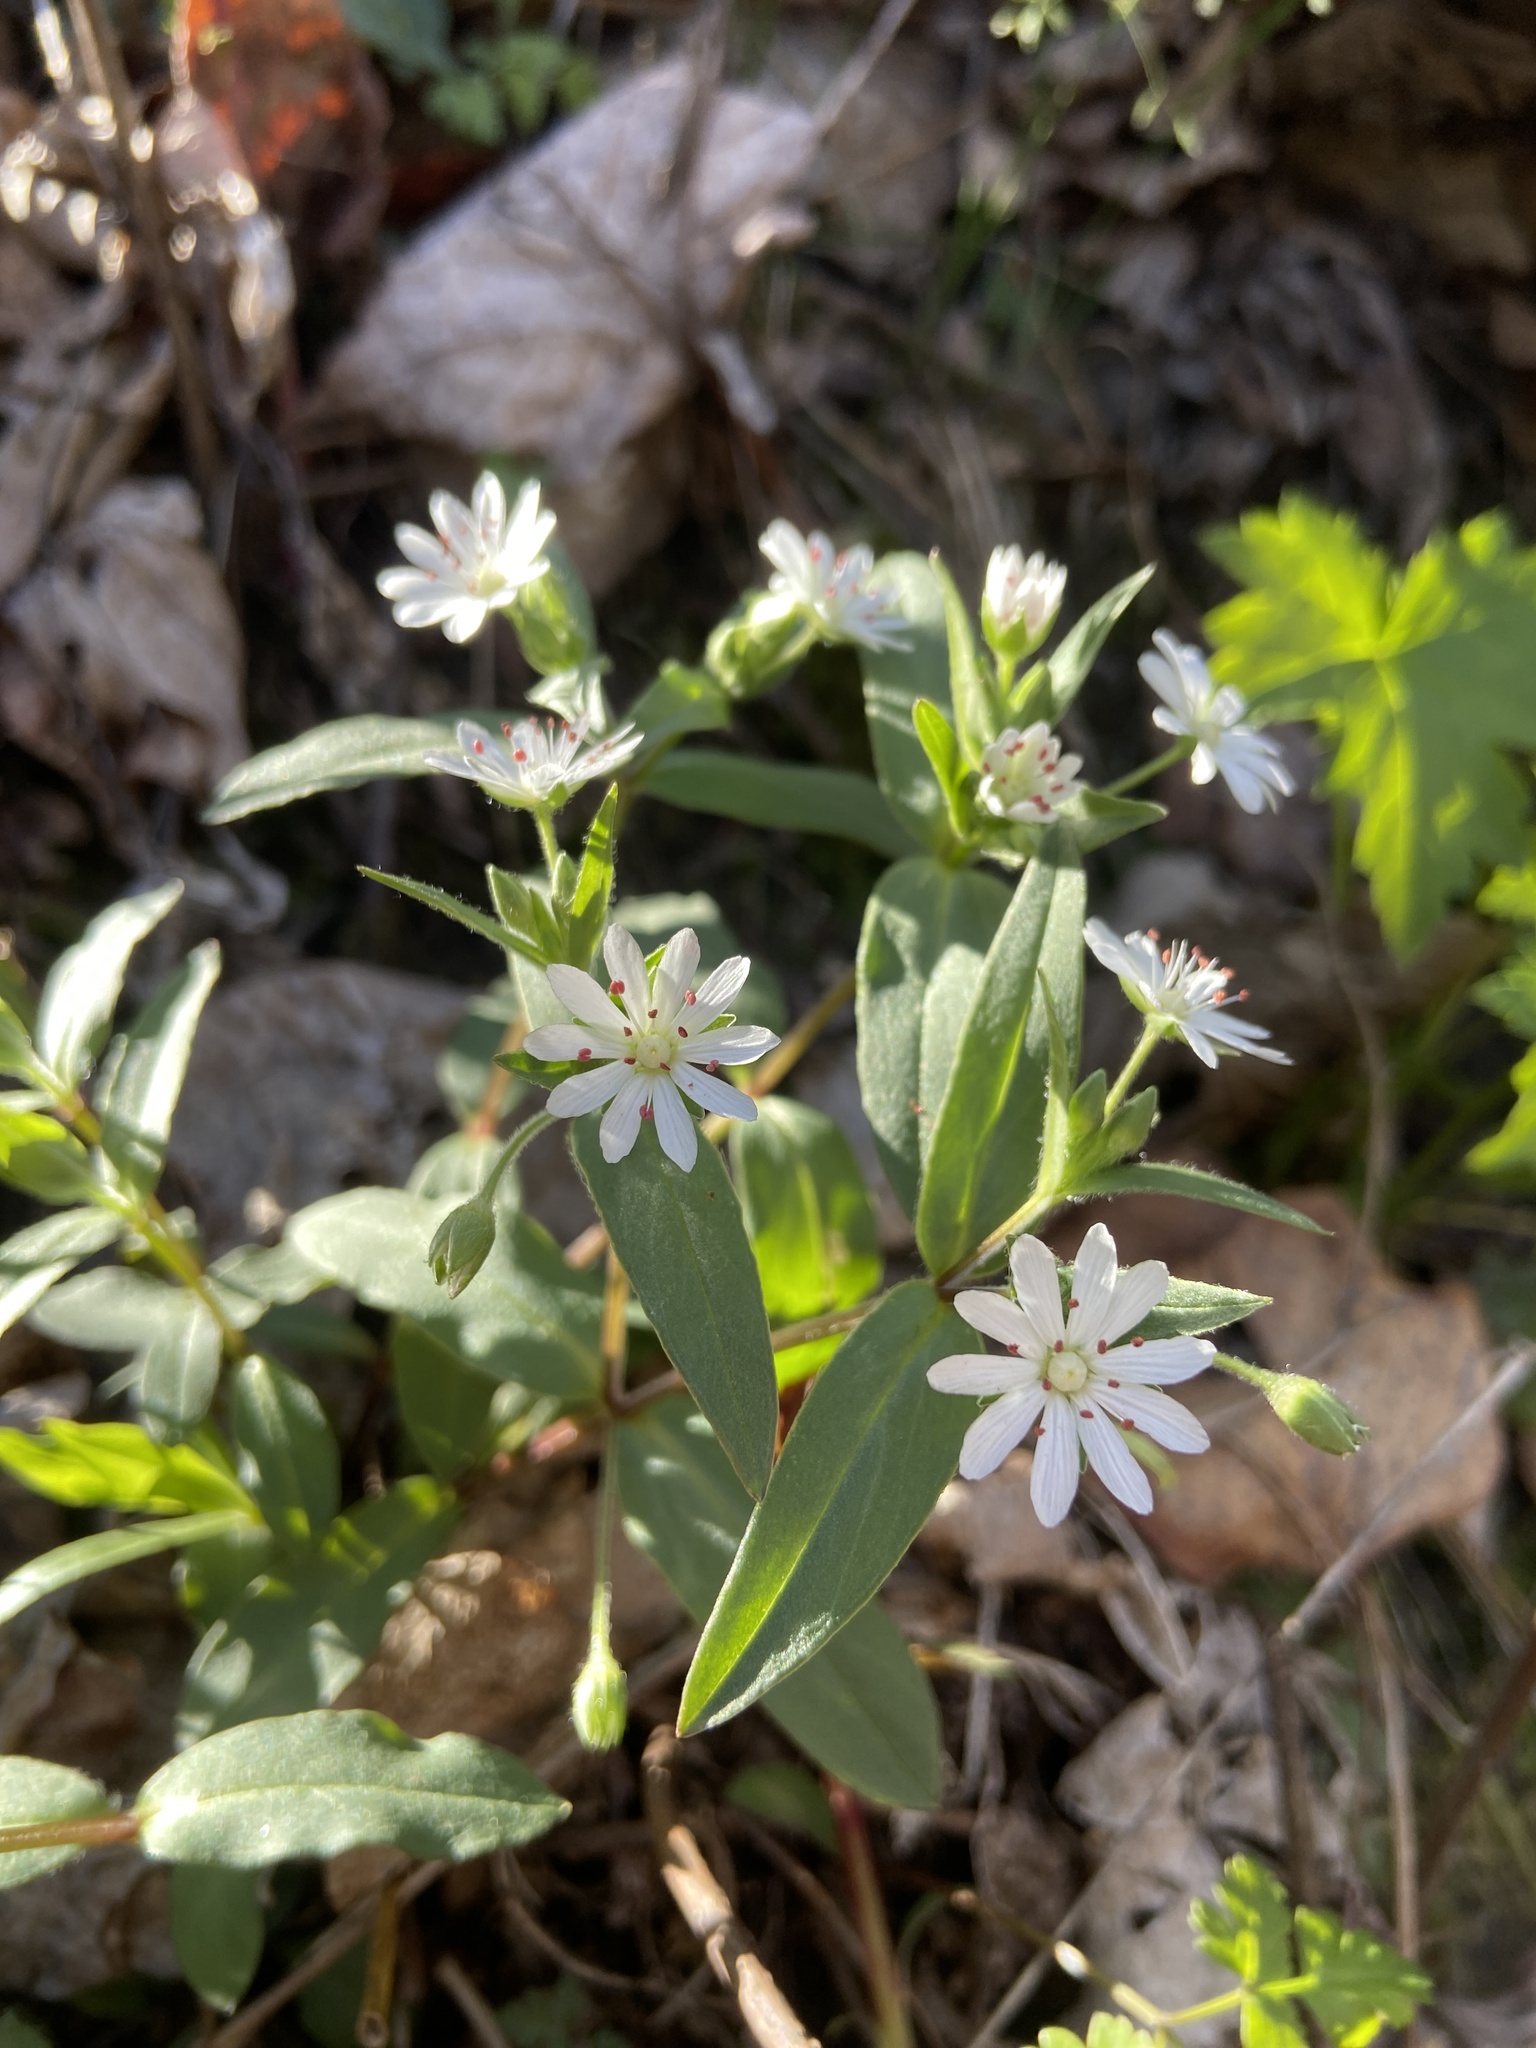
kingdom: Plantae
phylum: Tracheophyta
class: Magnoliopsida
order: Caryophyllales
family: Caryophyllaceae
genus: Stellaria
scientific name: Stellaria pubera
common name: Star chickweed
